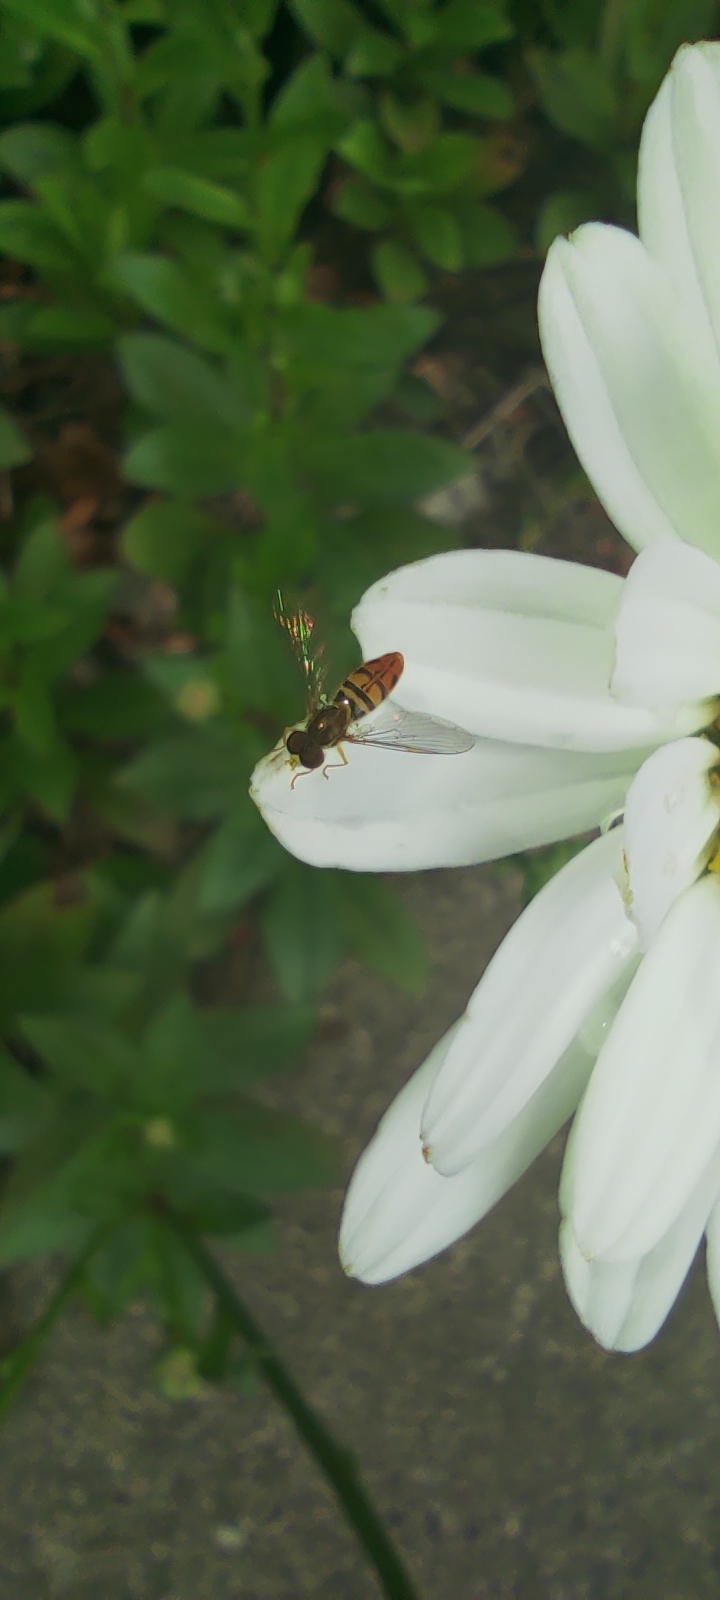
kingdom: Animalia
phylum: Arthropoda
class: Insecta
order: Diptera
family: Syrphidae
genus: Toxomerus
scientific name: Toxomerus marginatus
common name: Syrphid fly
